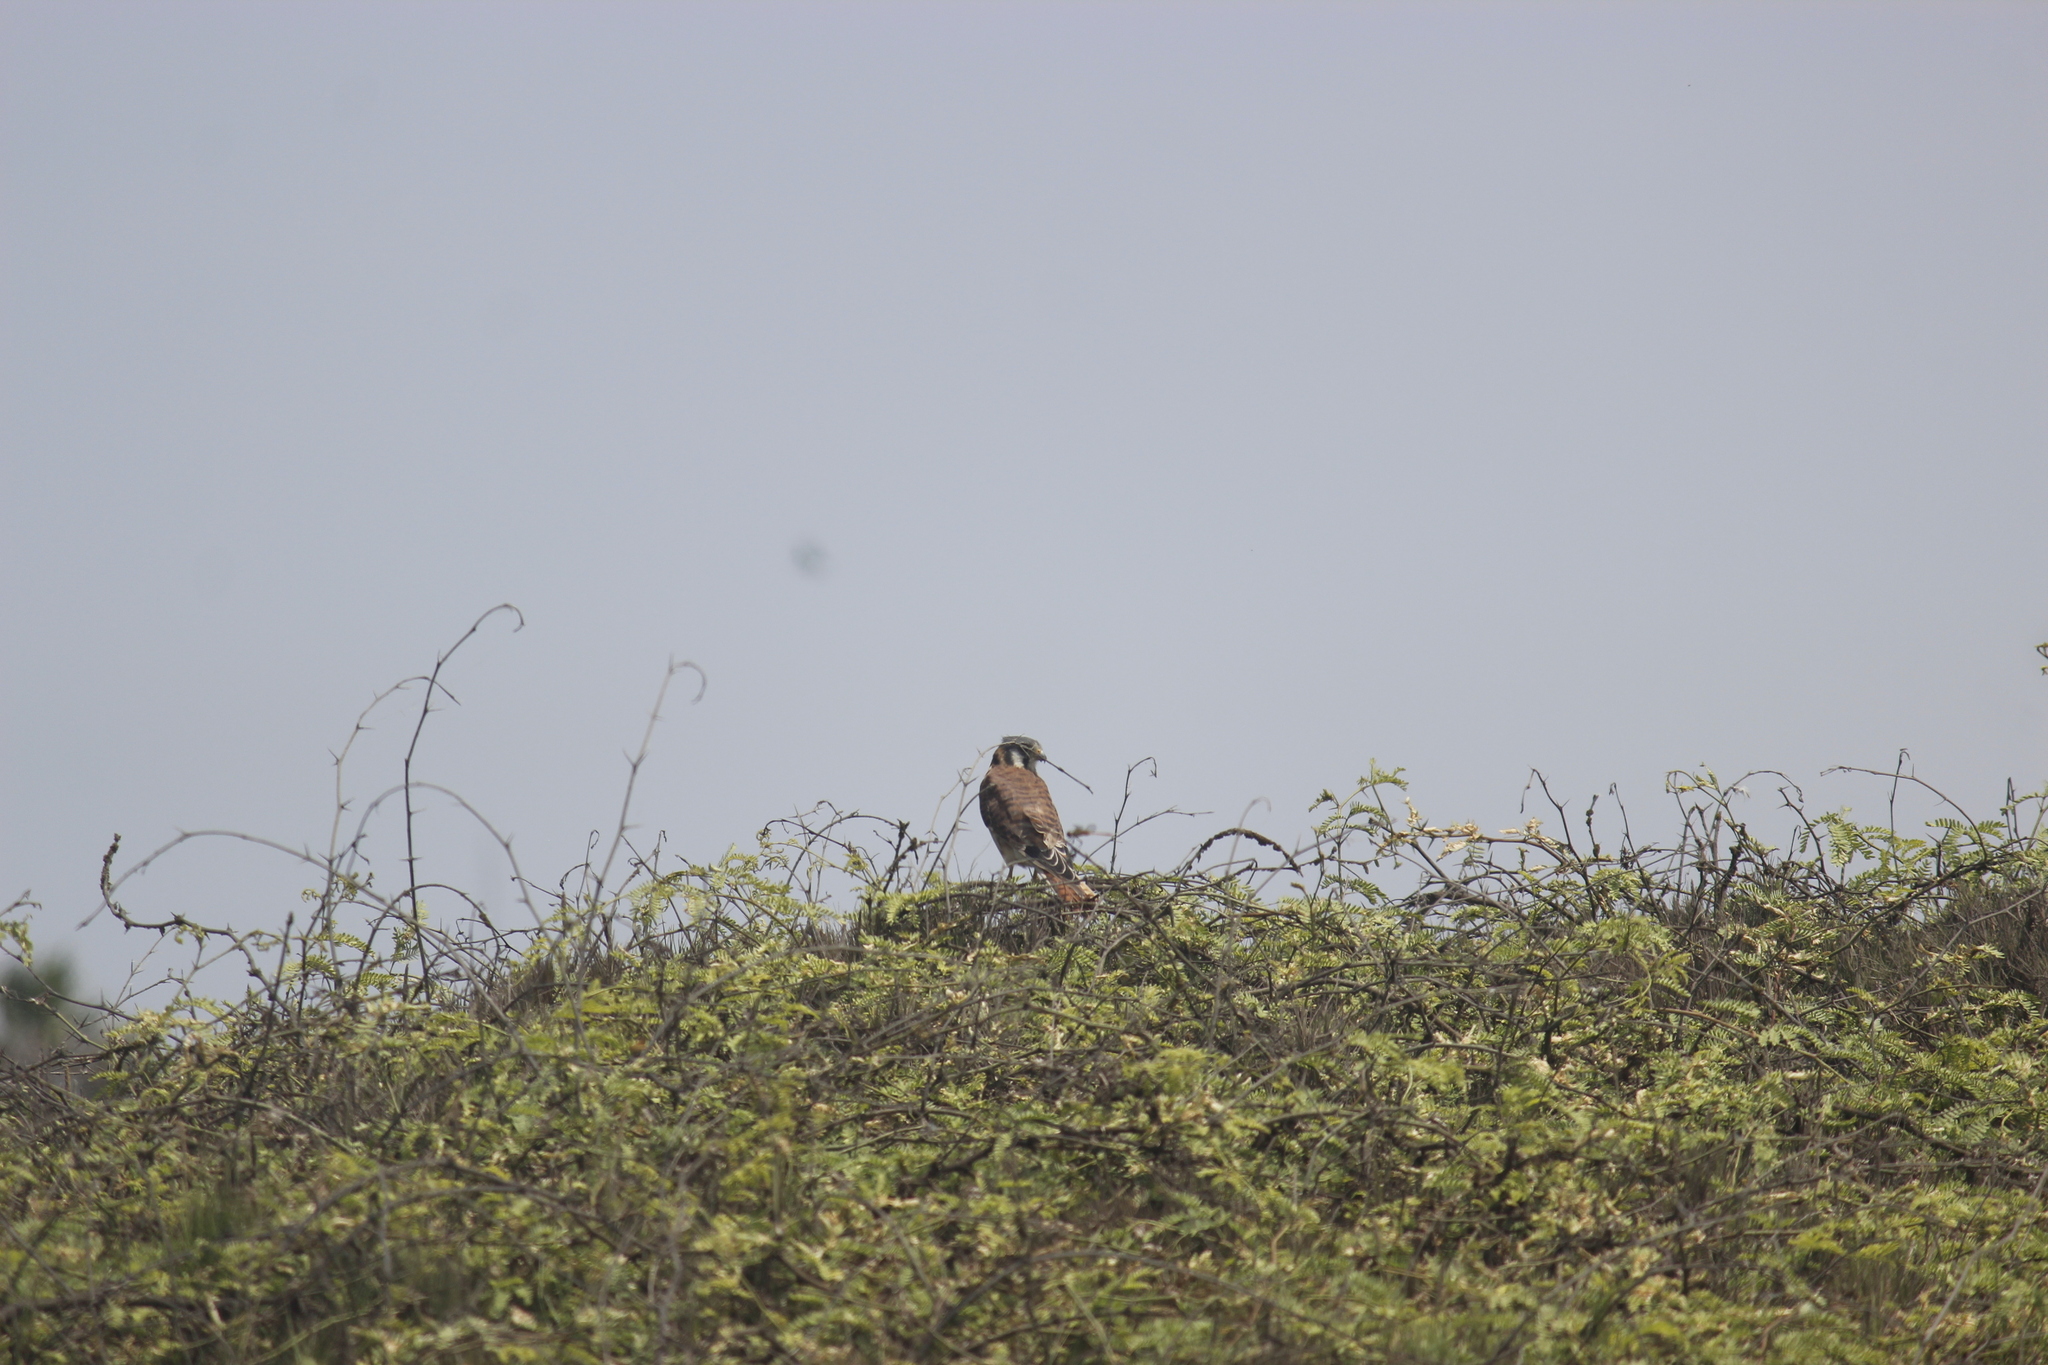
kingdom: Animalia
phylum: Chordata
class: Aves
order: Falconiformes
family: Falconidae
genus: Falco
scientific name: Falco sparverius
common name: American kestrel
